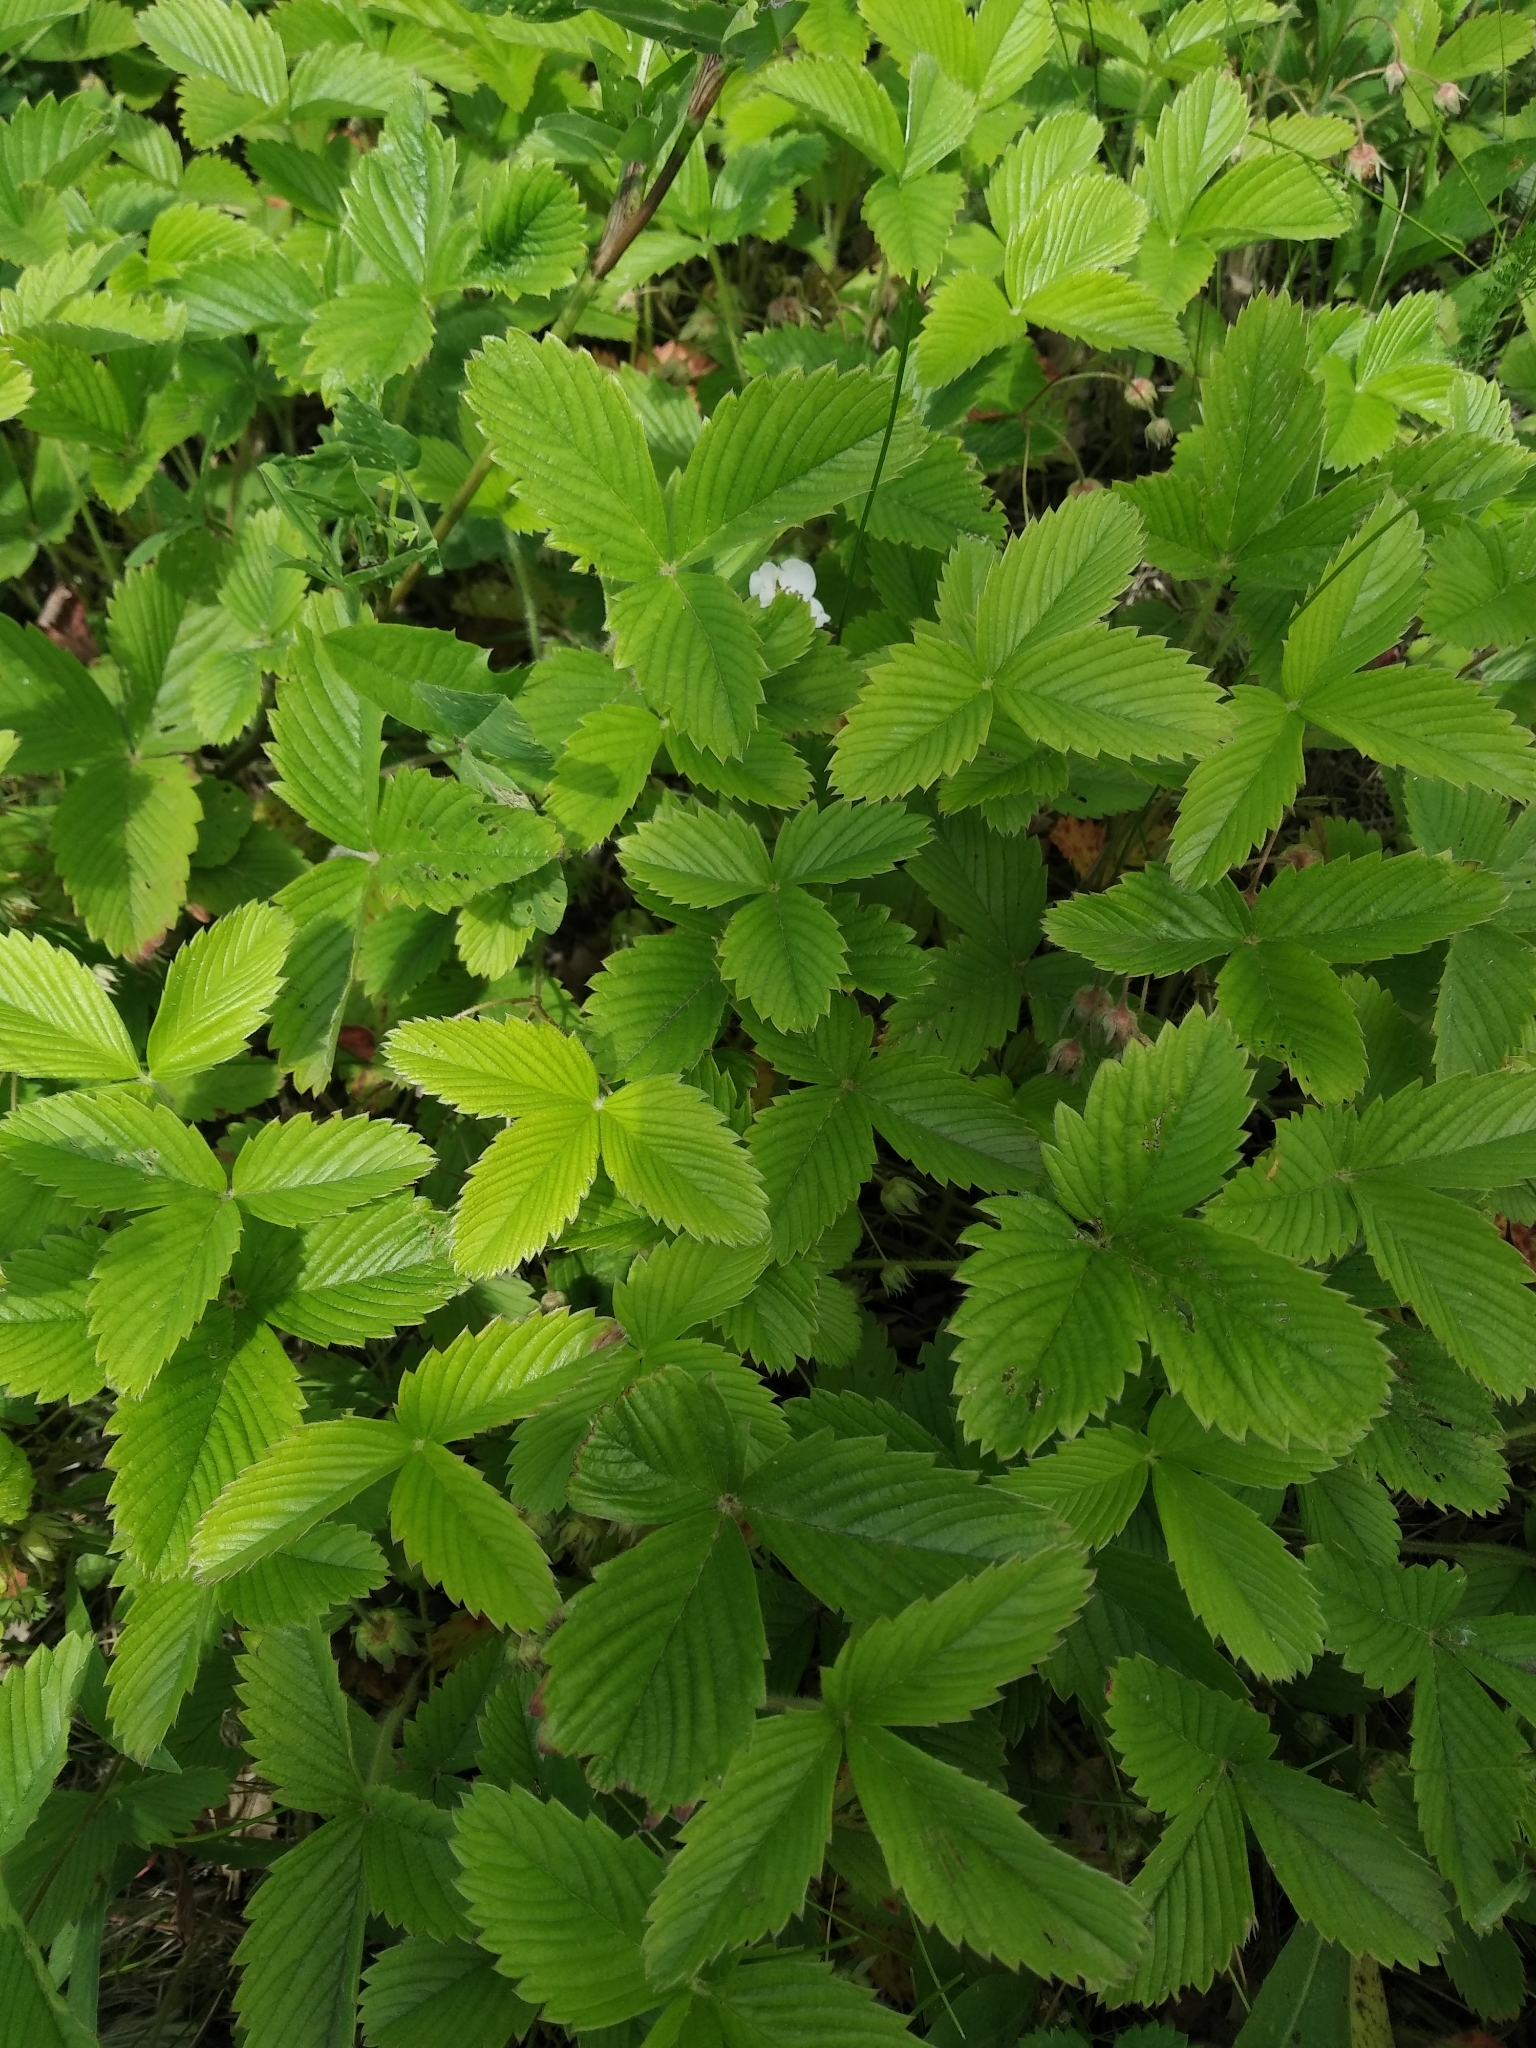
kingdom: Plantae
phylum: Tracheophyta
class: Magnoliopsida
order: Rosales
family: Rosaceae
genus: Fragaria
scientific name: Fragaria viridis
